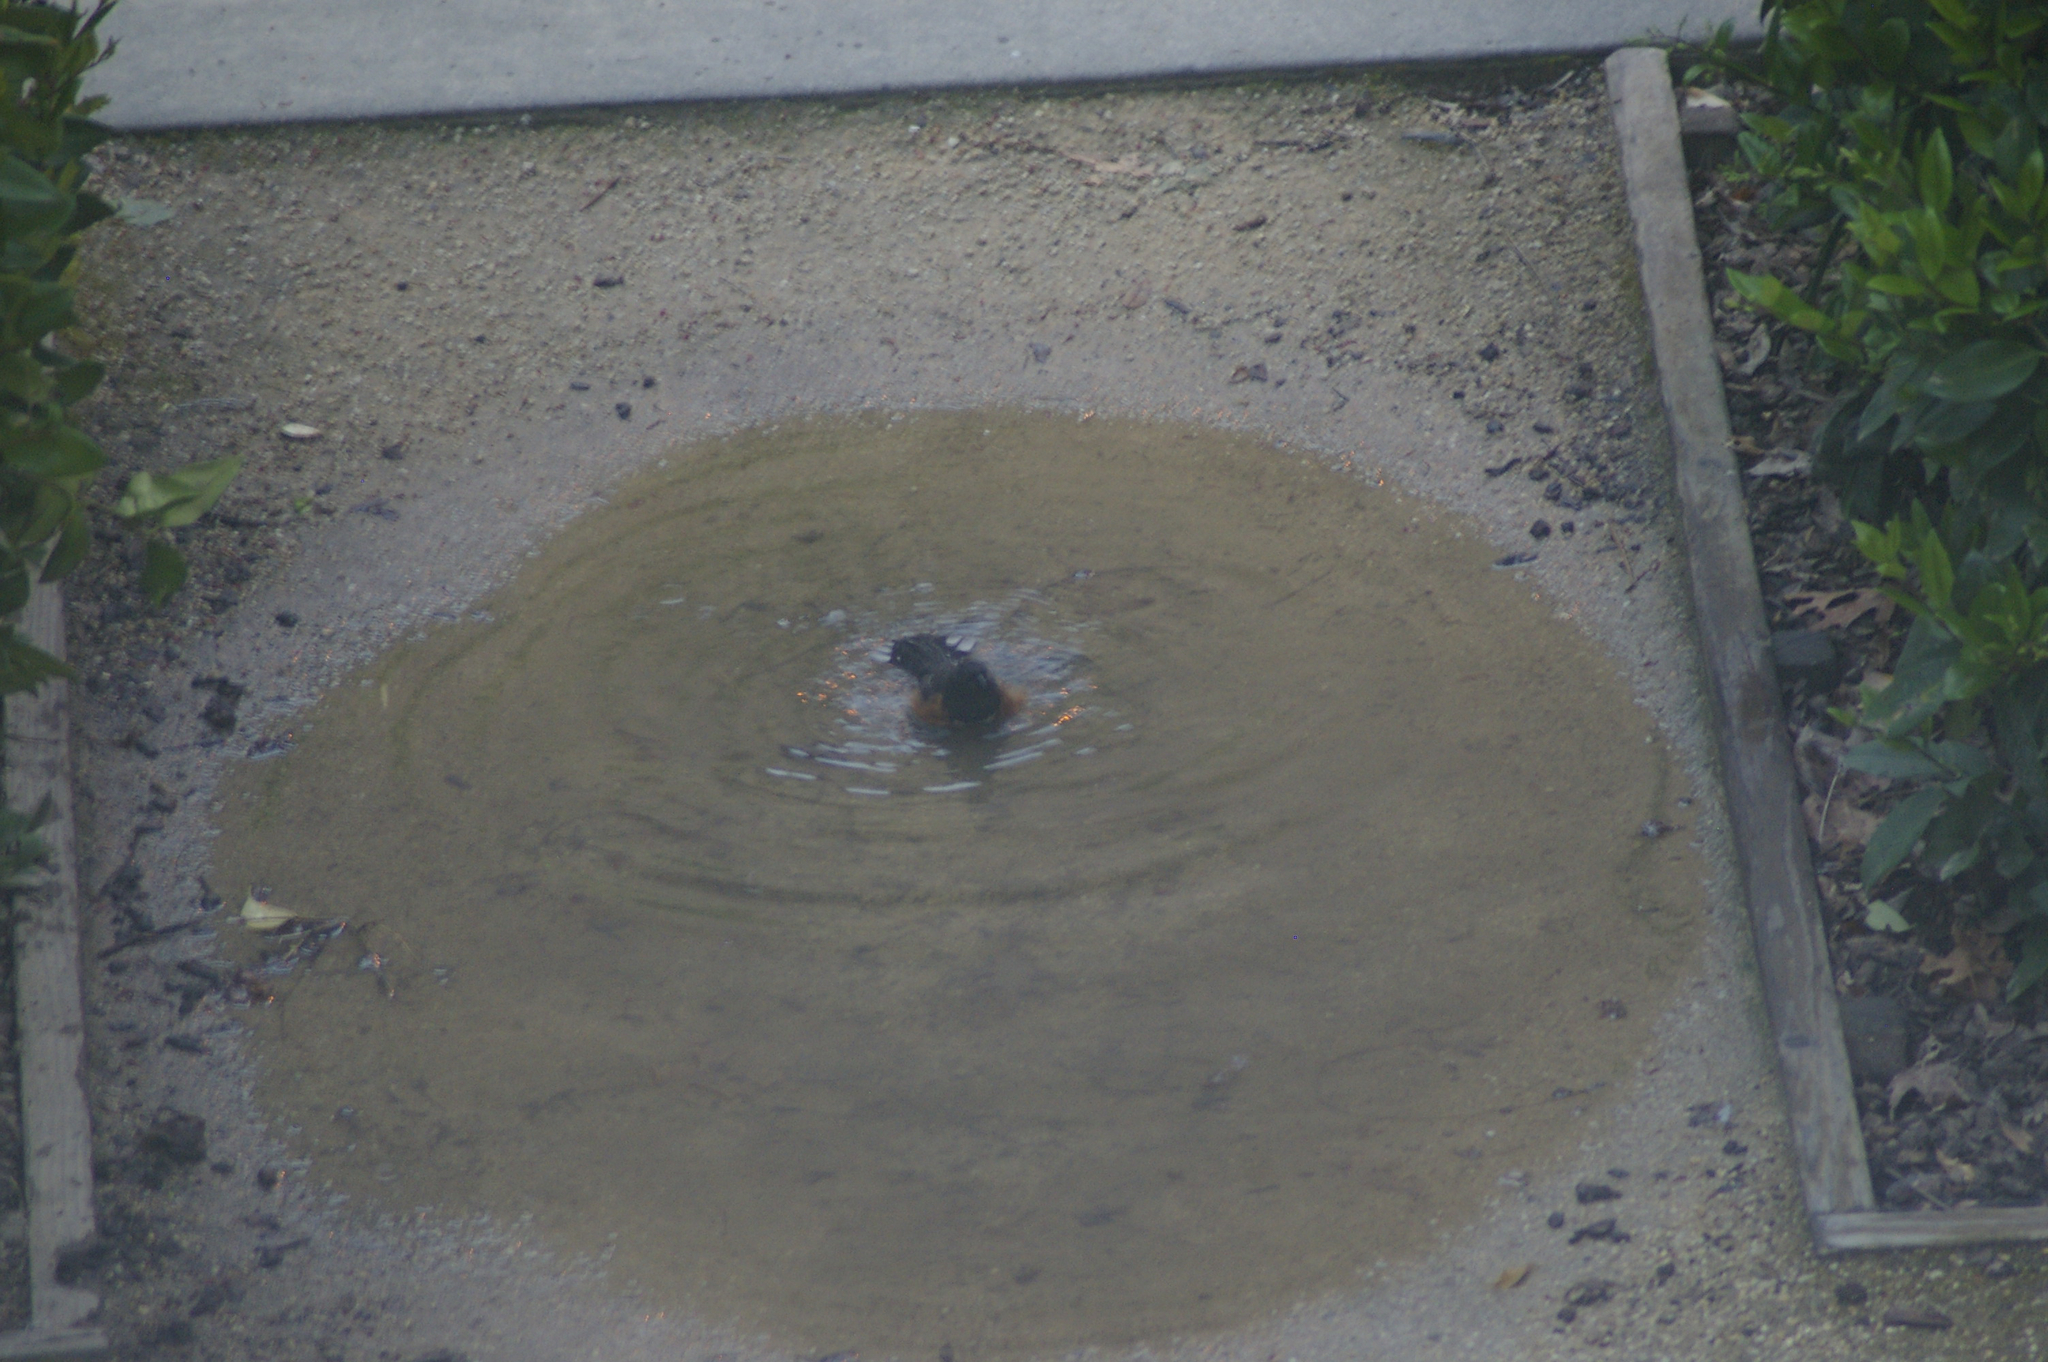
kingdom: Animalia
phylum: Chordata
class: Aves
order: Passeriformes
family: Passerellidae
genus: Pipilo
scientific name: Pipilo maculatus
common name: Spotted towhee
